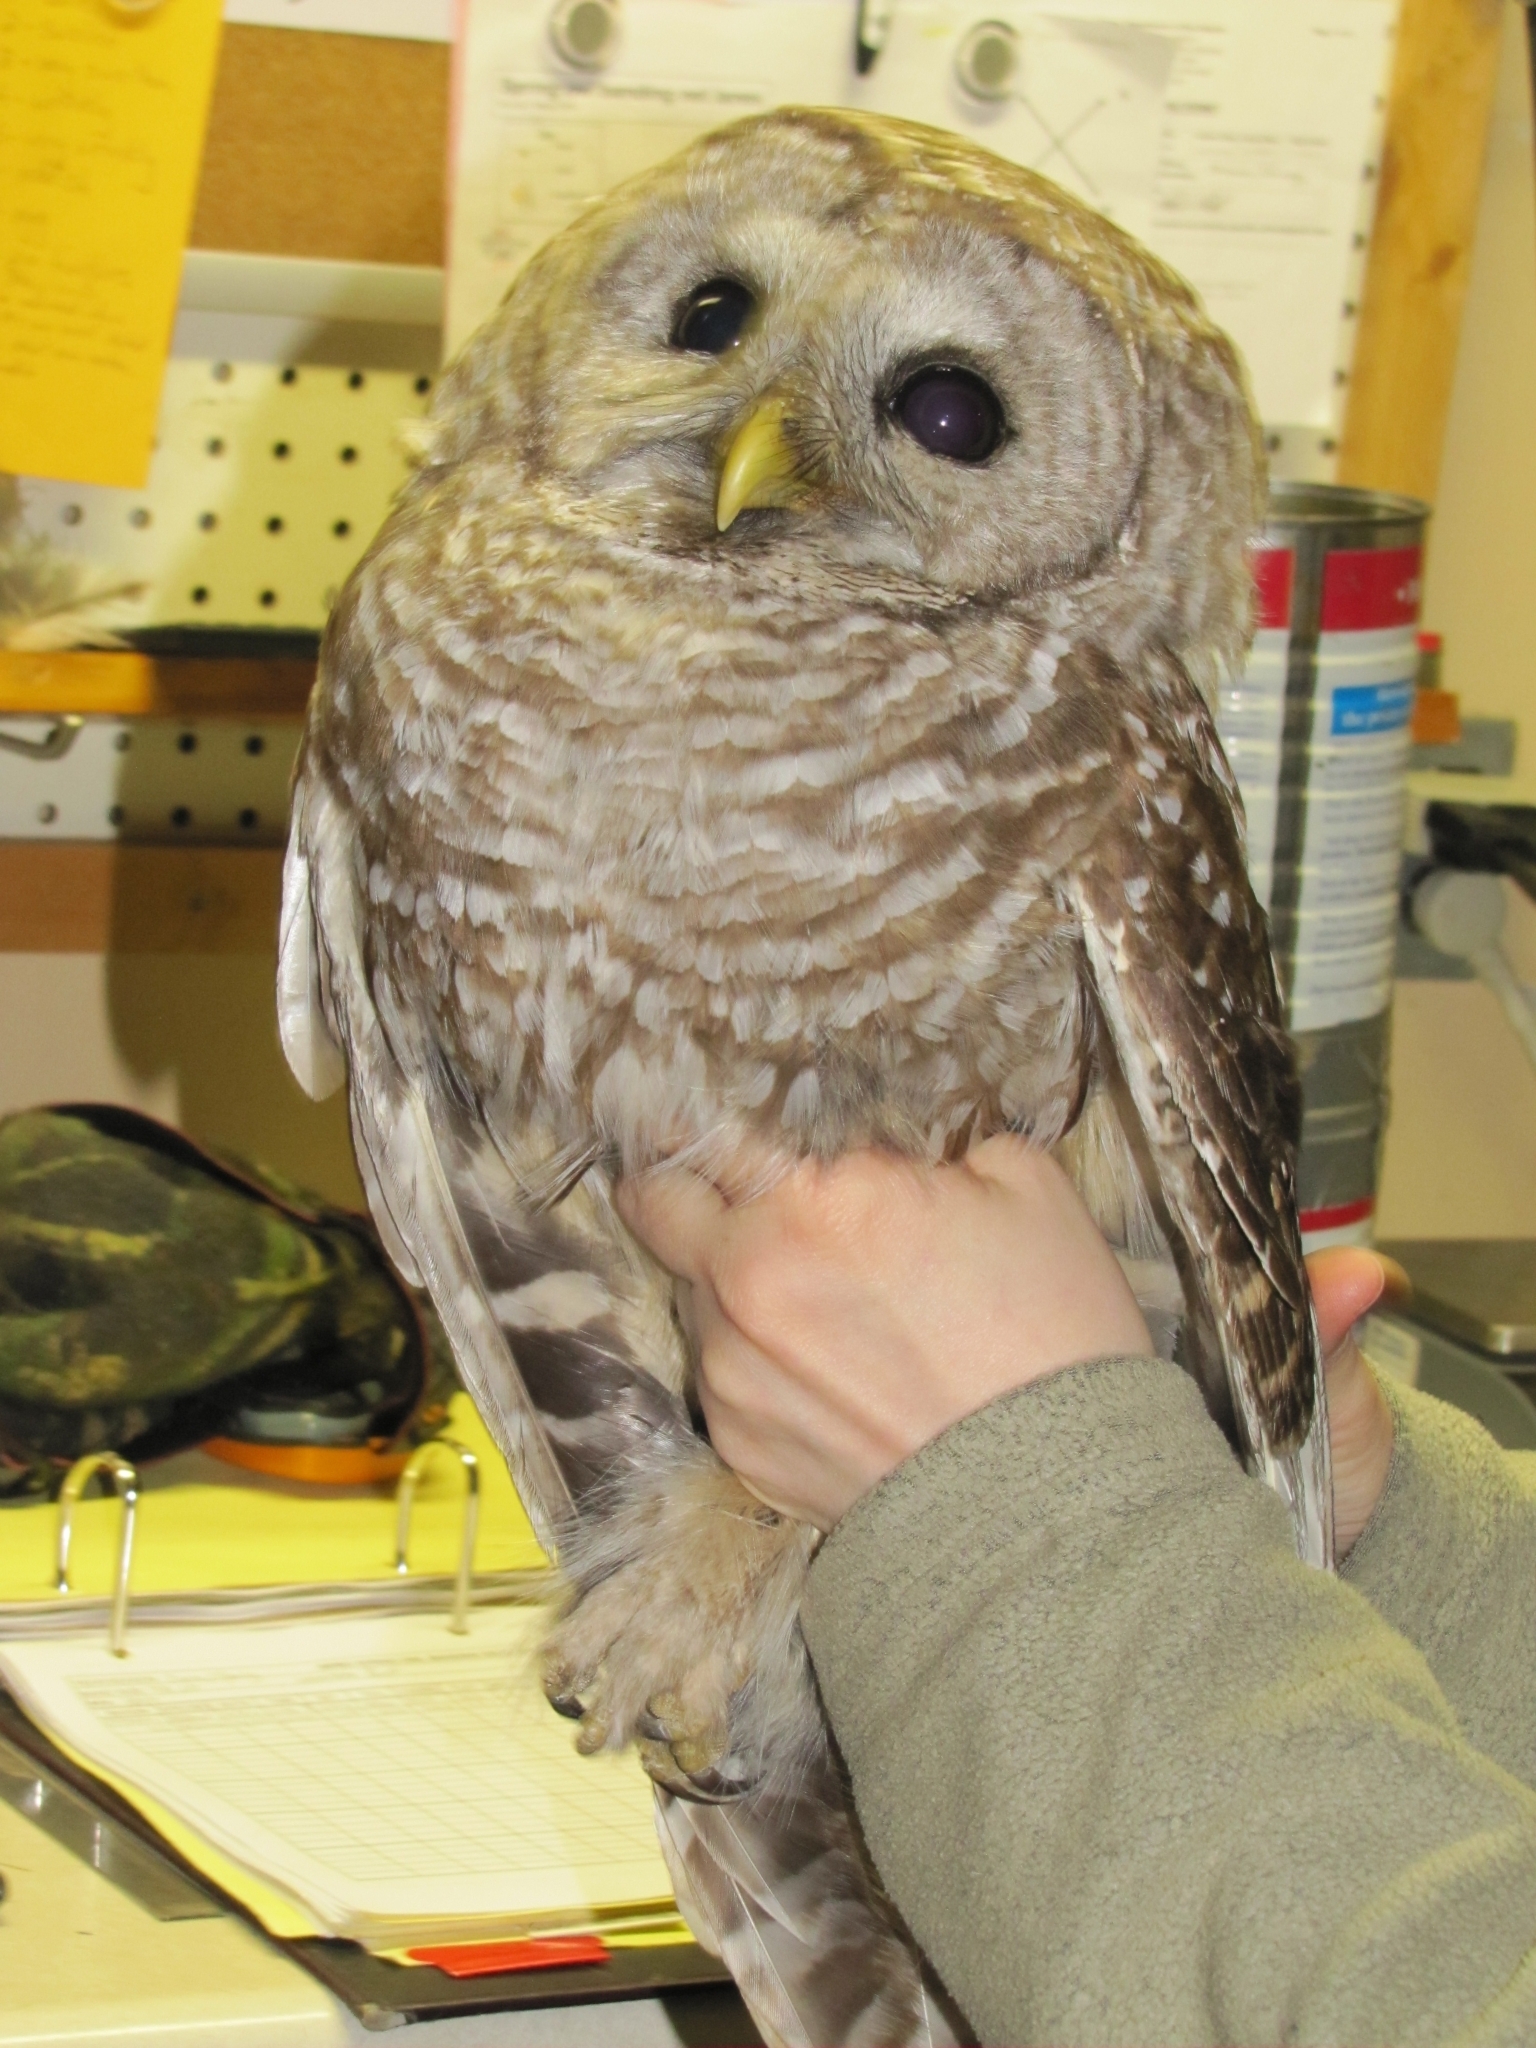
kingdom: Animalia
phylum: Chordata
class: Aves
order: Strigiformes
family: Strigidae
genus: Strix
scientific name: Strix varia
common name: Barred owl
